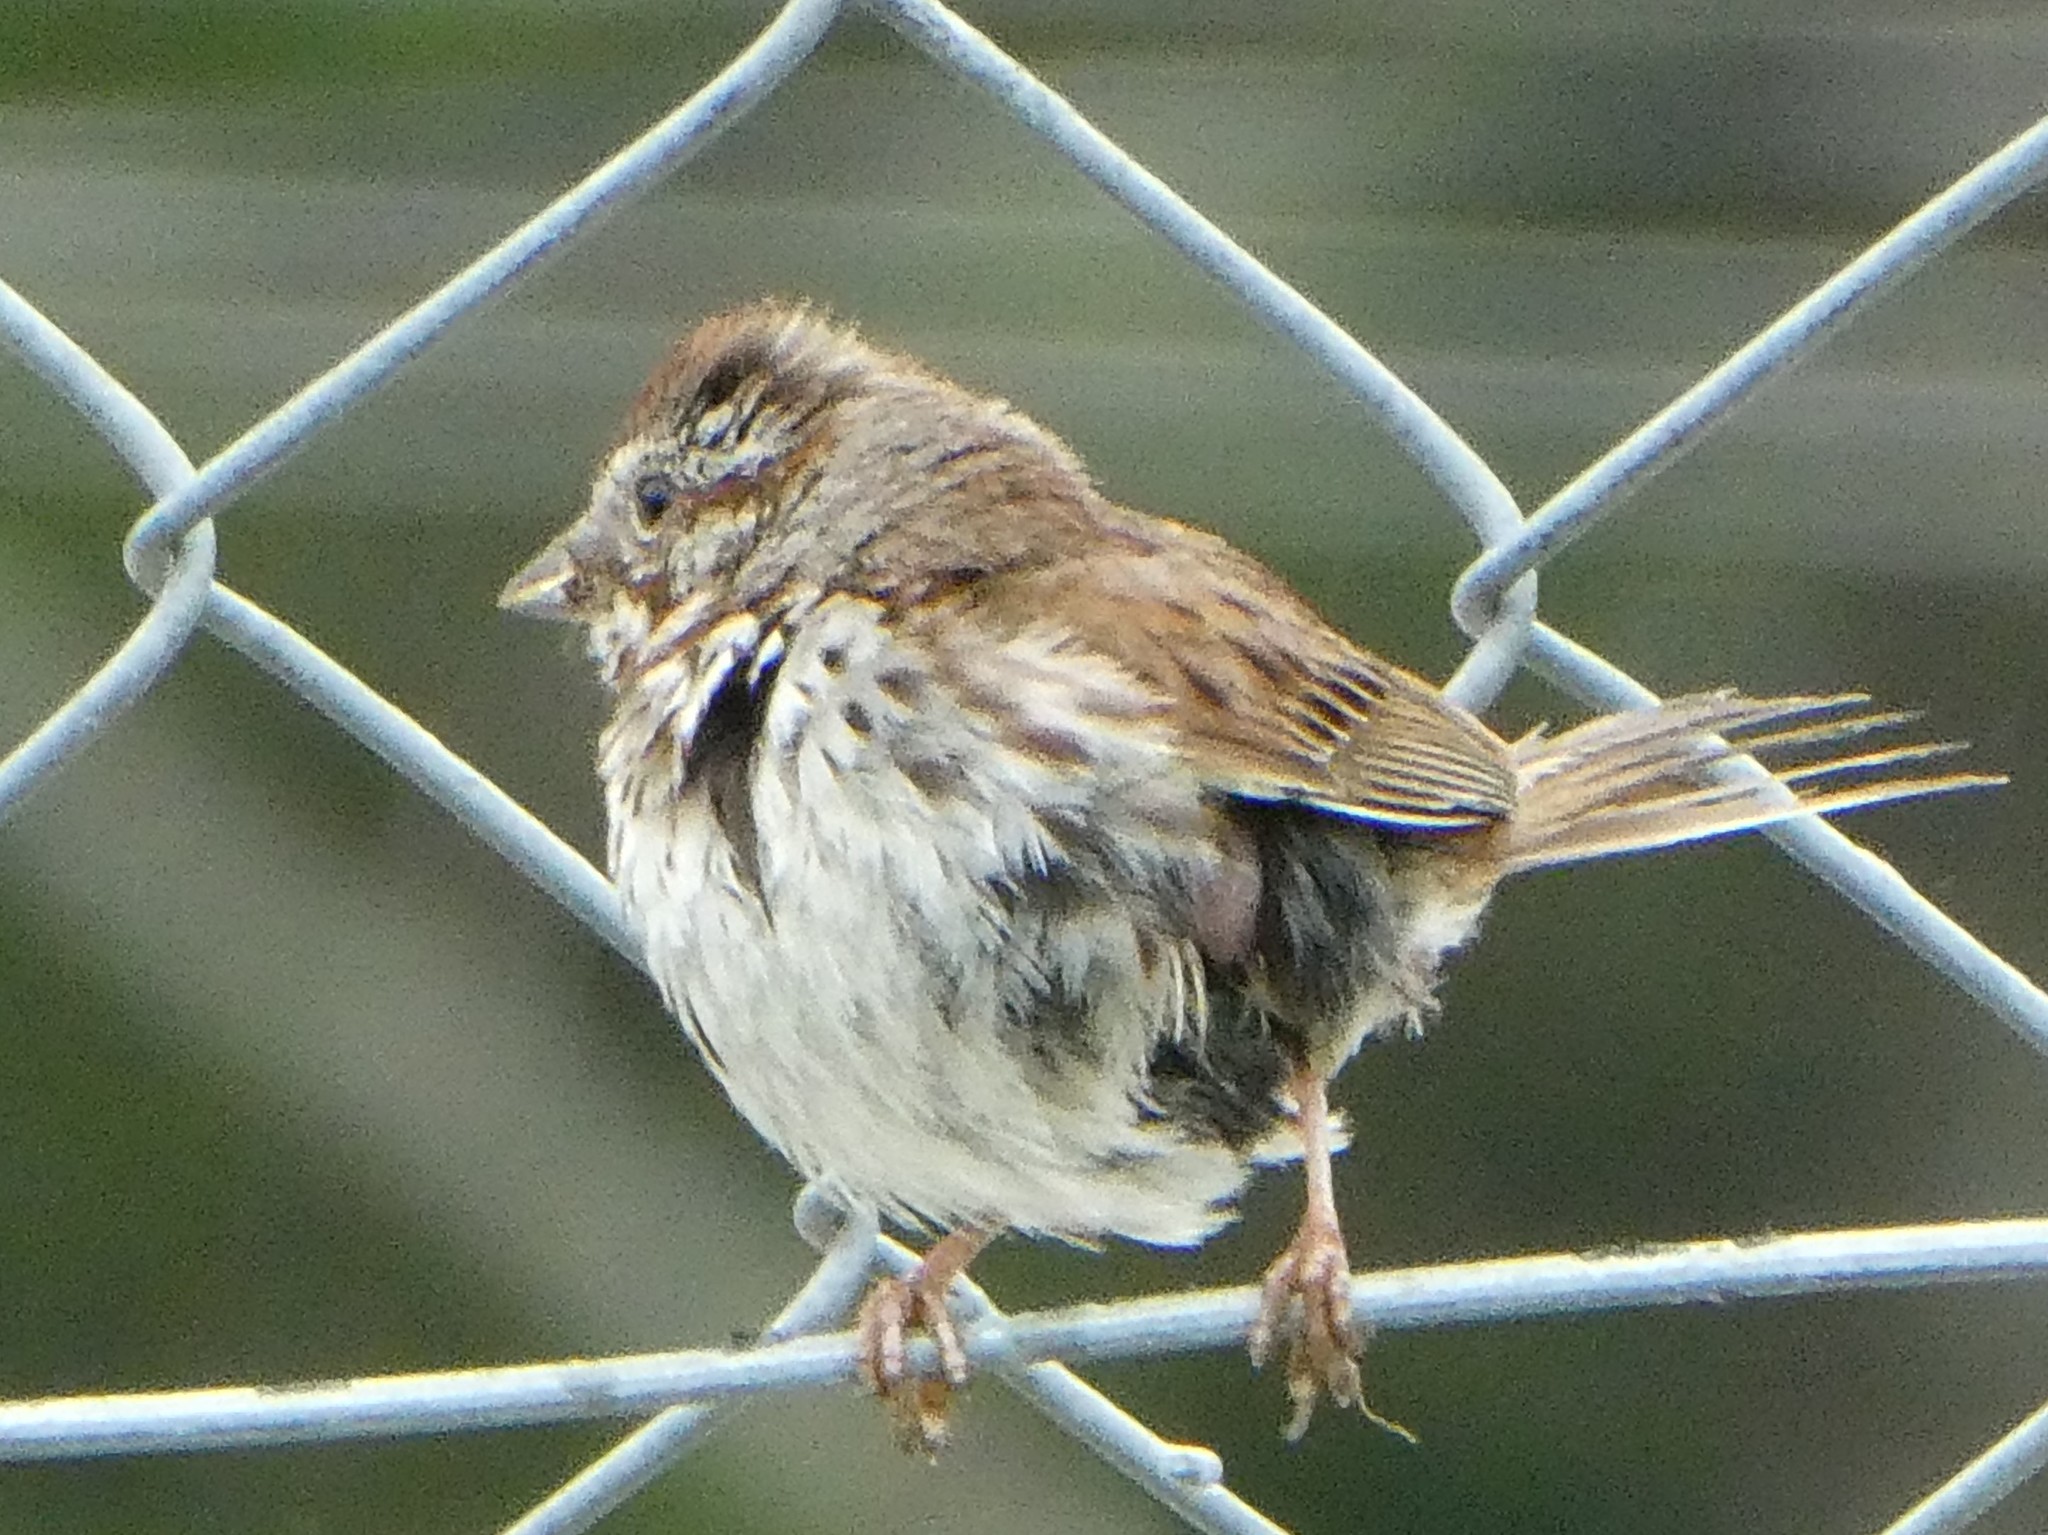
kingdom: Animalia
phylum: Chordata
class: Aves
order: Passeriformes
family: Passerellidae
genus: Melospiza
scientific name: Melospiza melodia
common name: Song sparrow
